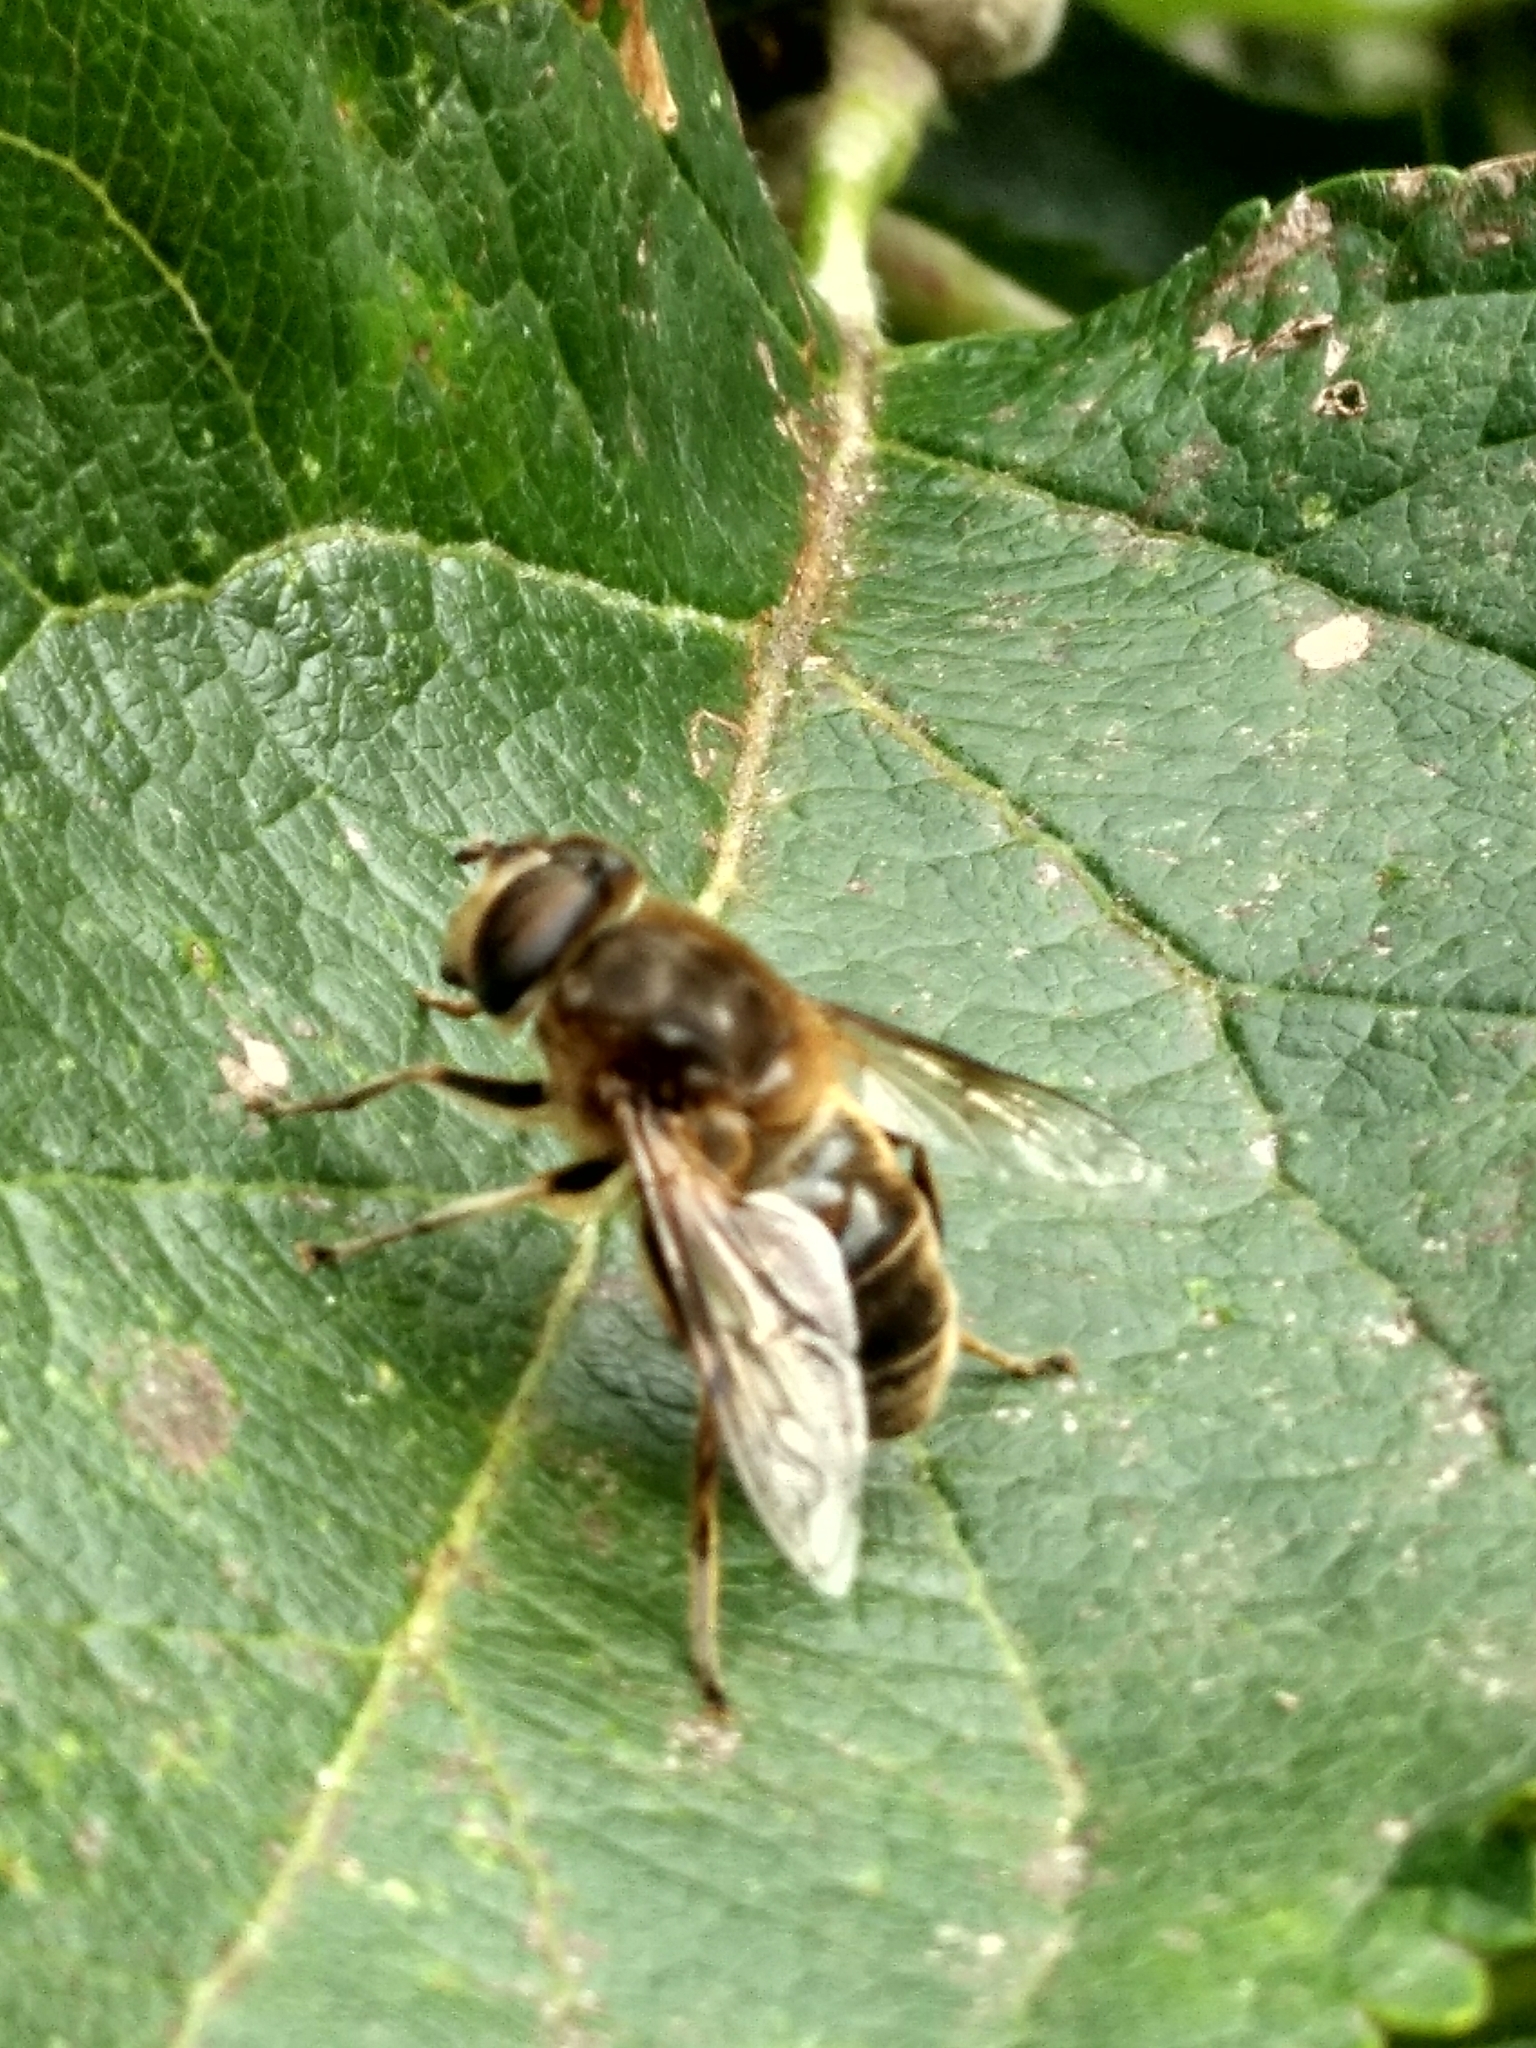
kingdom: Animalia
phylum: Arthropoda
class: Insecta
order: Diptera
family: Syrphidae
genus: Eristalis
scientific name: Eristalis tenax
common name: Drone fly
